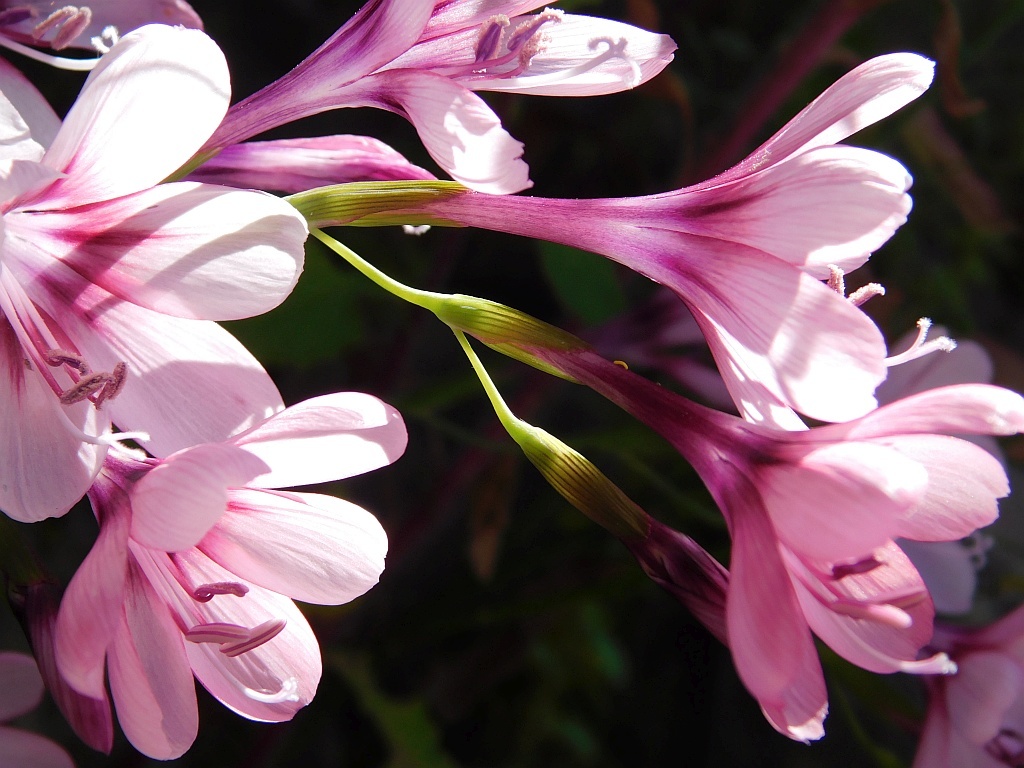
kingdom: Plantae
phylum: Tracheophyta
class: Liliopsida
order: Asparagales
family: Iridaceae
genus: Geissorhiza
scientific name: Geissorhiza callista
